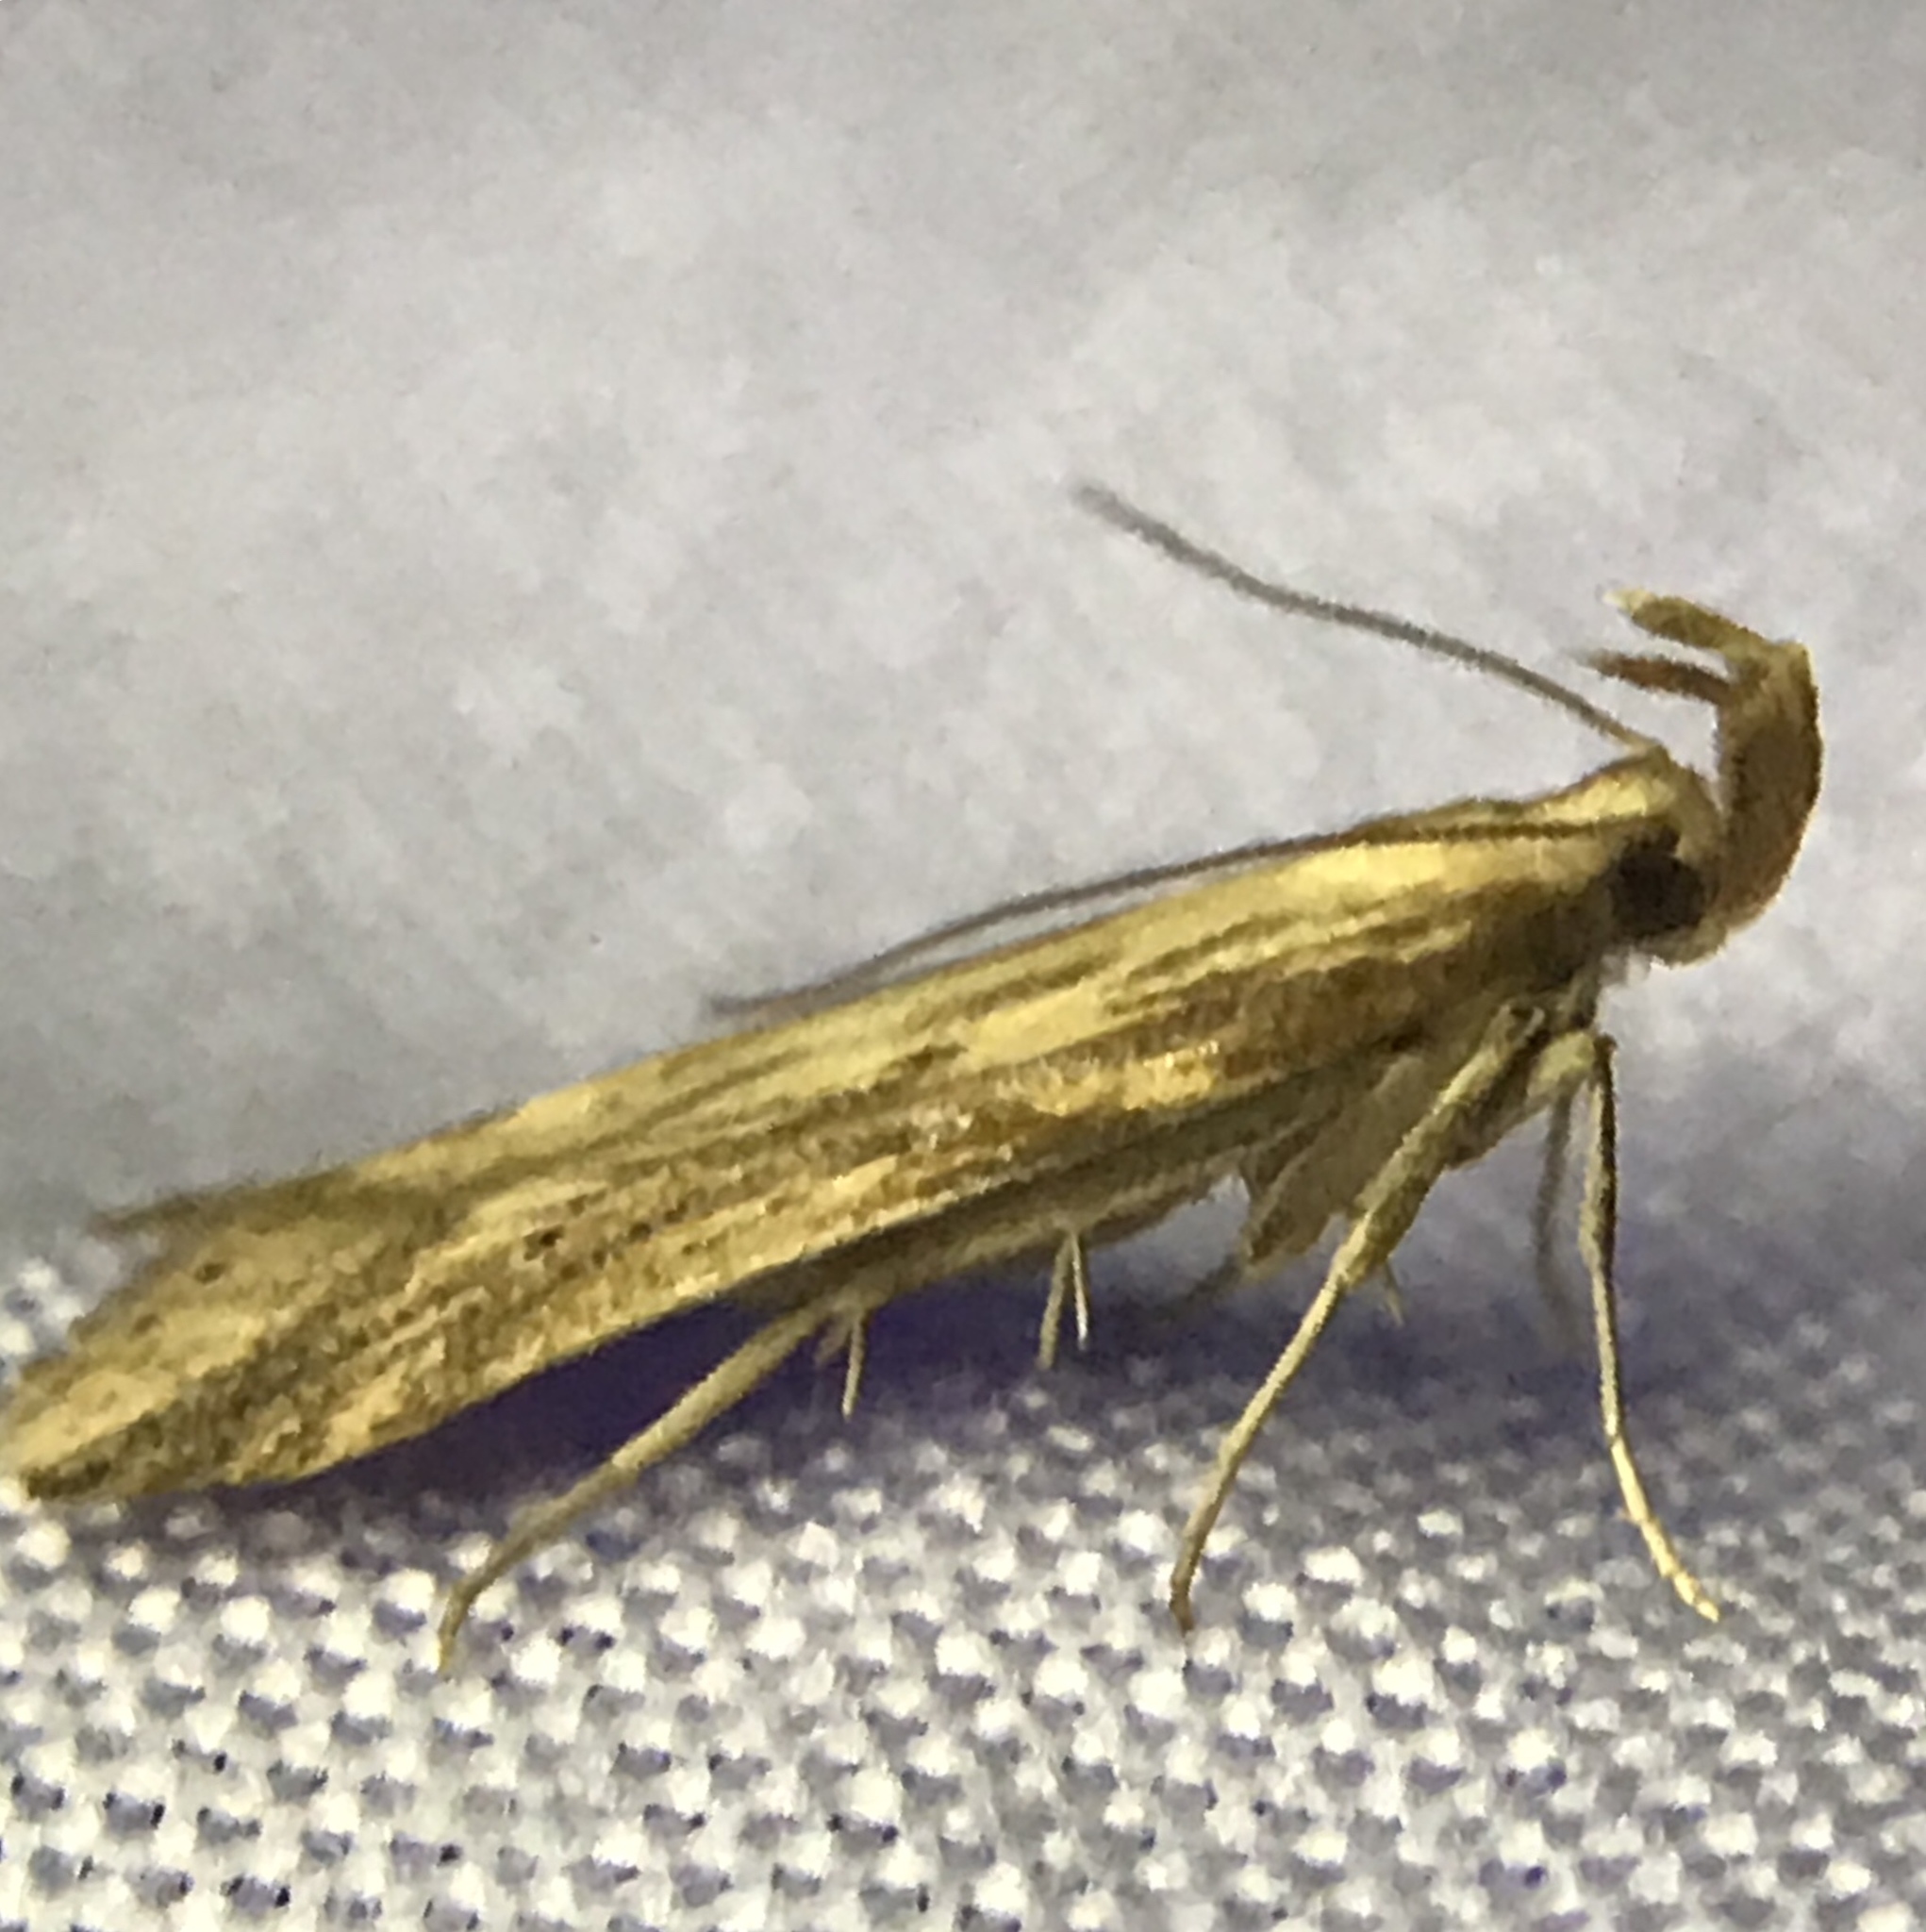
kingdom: Animalia
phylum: Arthropoda
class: Insecta
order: Lepidoptera
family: Gelechiidae
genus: Metzneria
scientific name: Metzneria lappella
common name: Burdock neb
